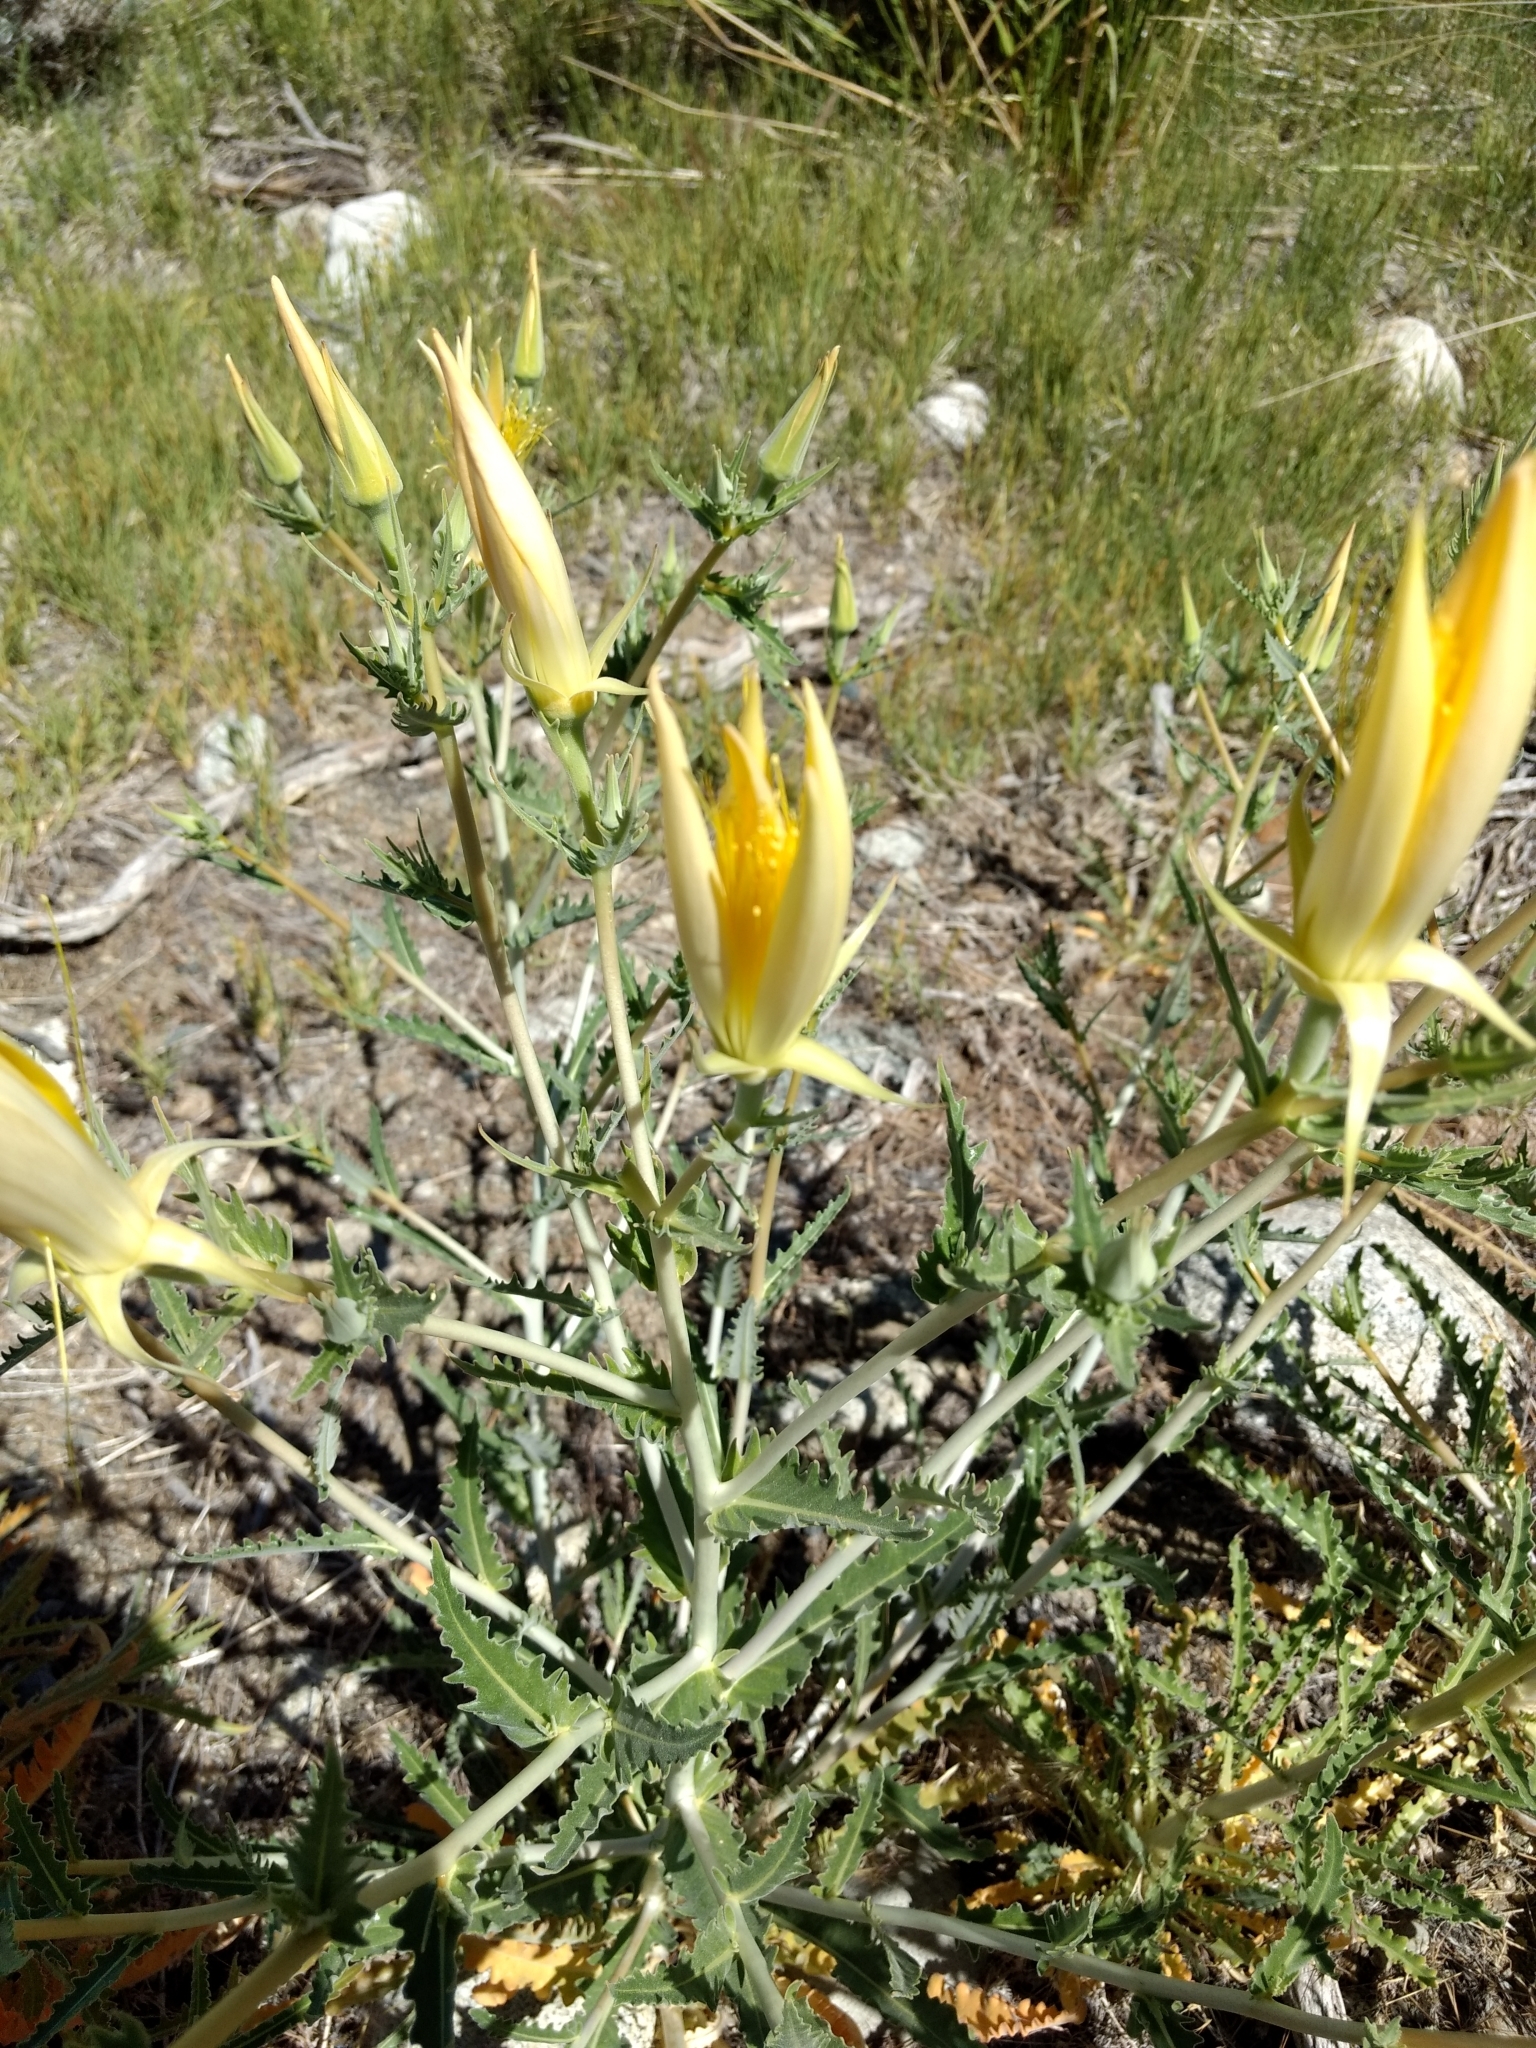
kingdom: Plantae
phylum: Tracheophyta
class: Magnoliopsida
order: Cornales
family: Loasaceae
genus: Mentzelia
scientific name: Mentzelia laevicaulis
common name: Smooth-stem blazingstar
